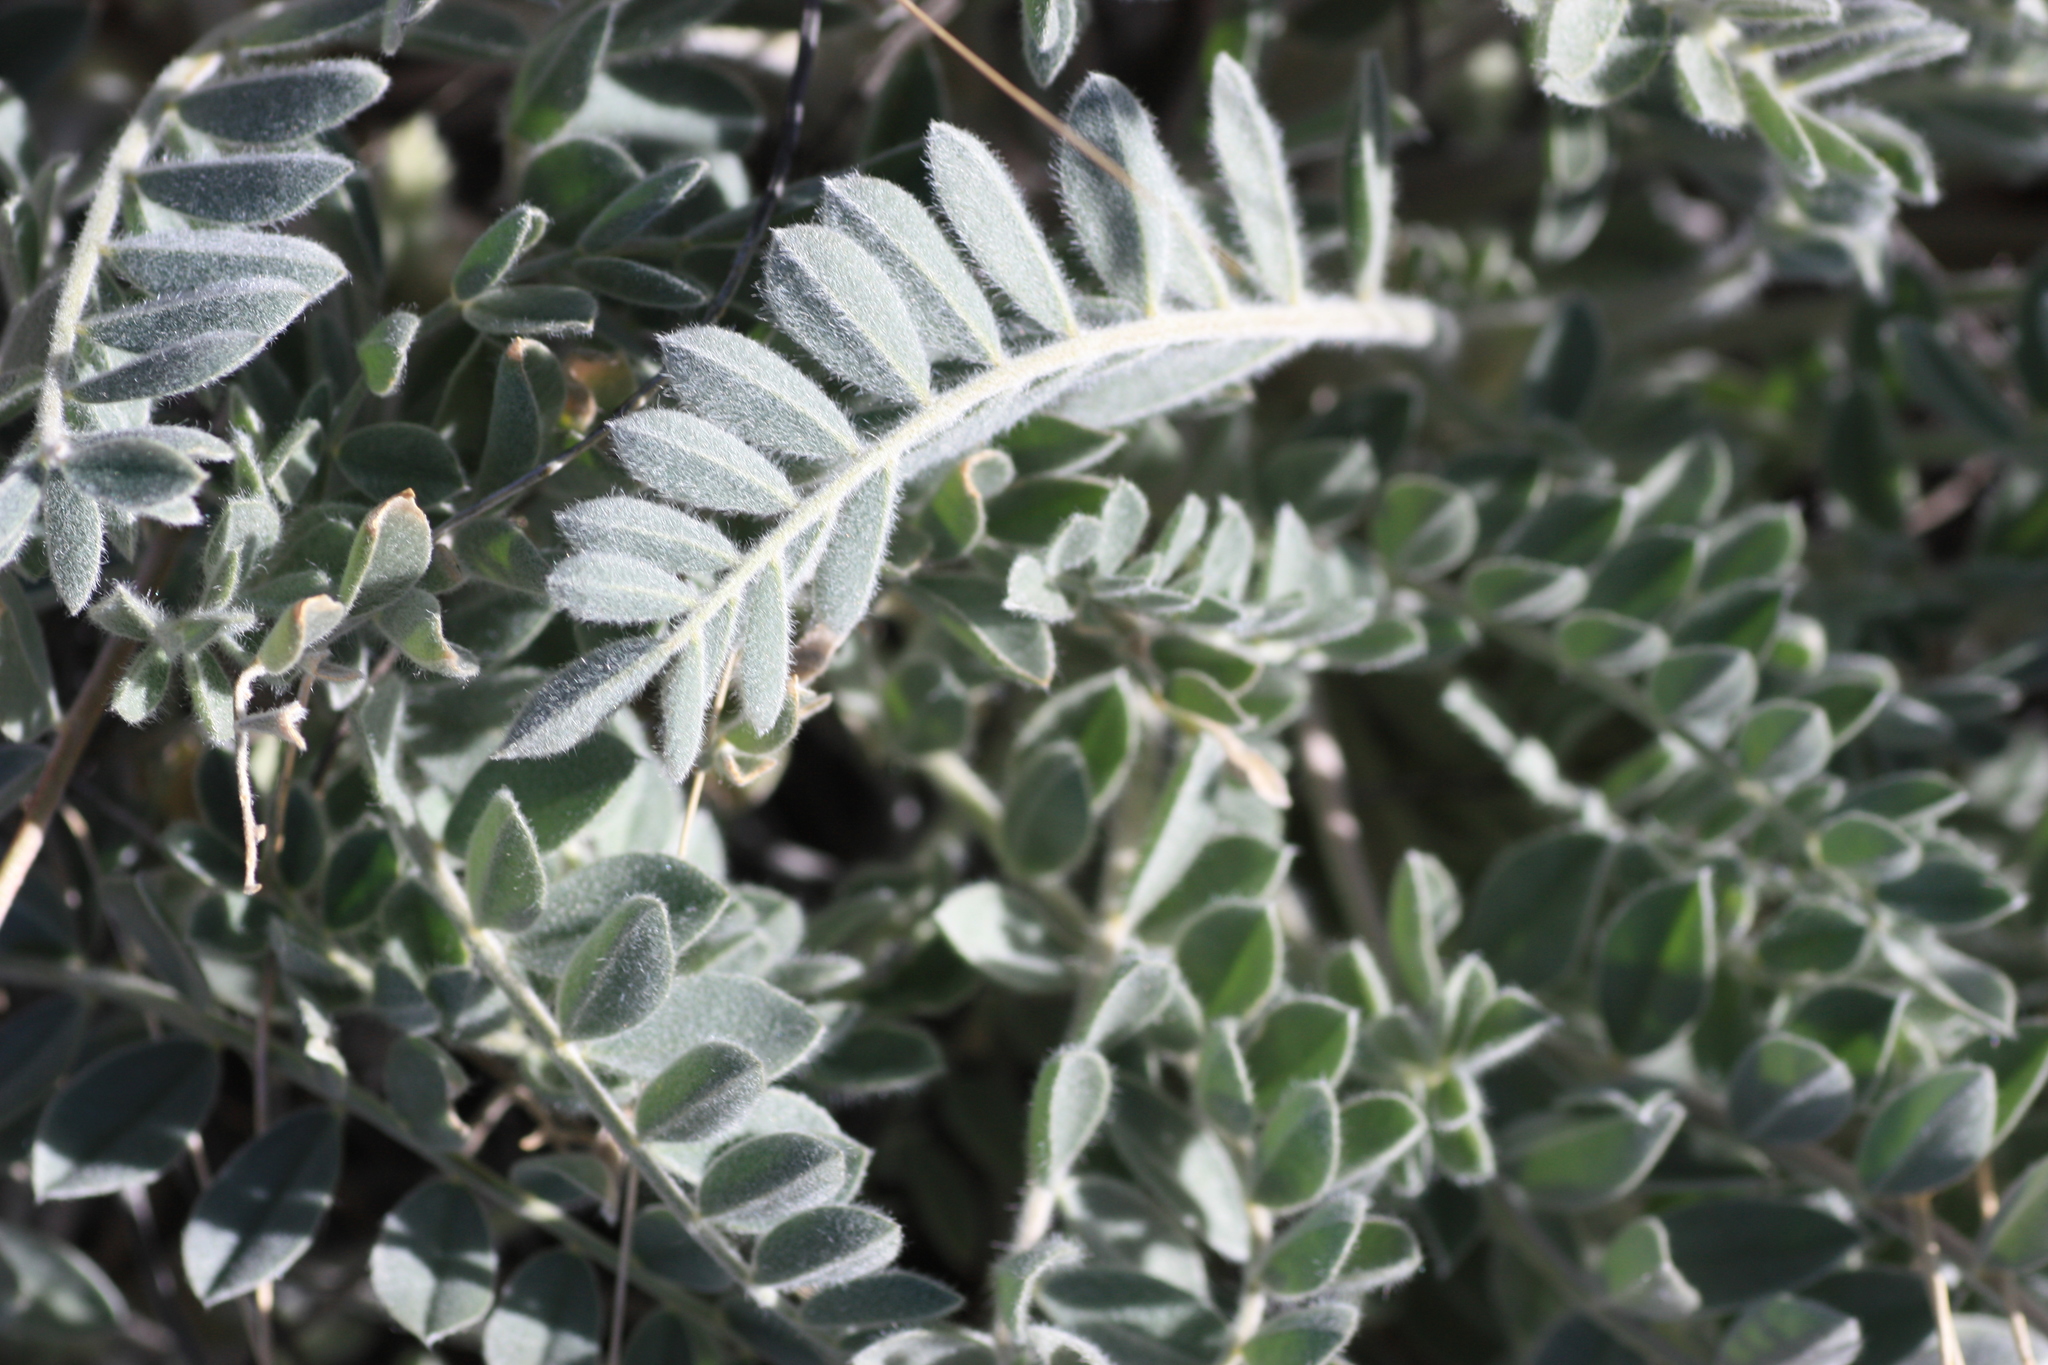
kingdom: Plantae
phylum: Tracheophyta
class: Magnoliopsida
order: Fabales
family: Fabaceae
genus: Astragalus
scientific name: Astragalus mollissimus
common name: Woolly locoweed
